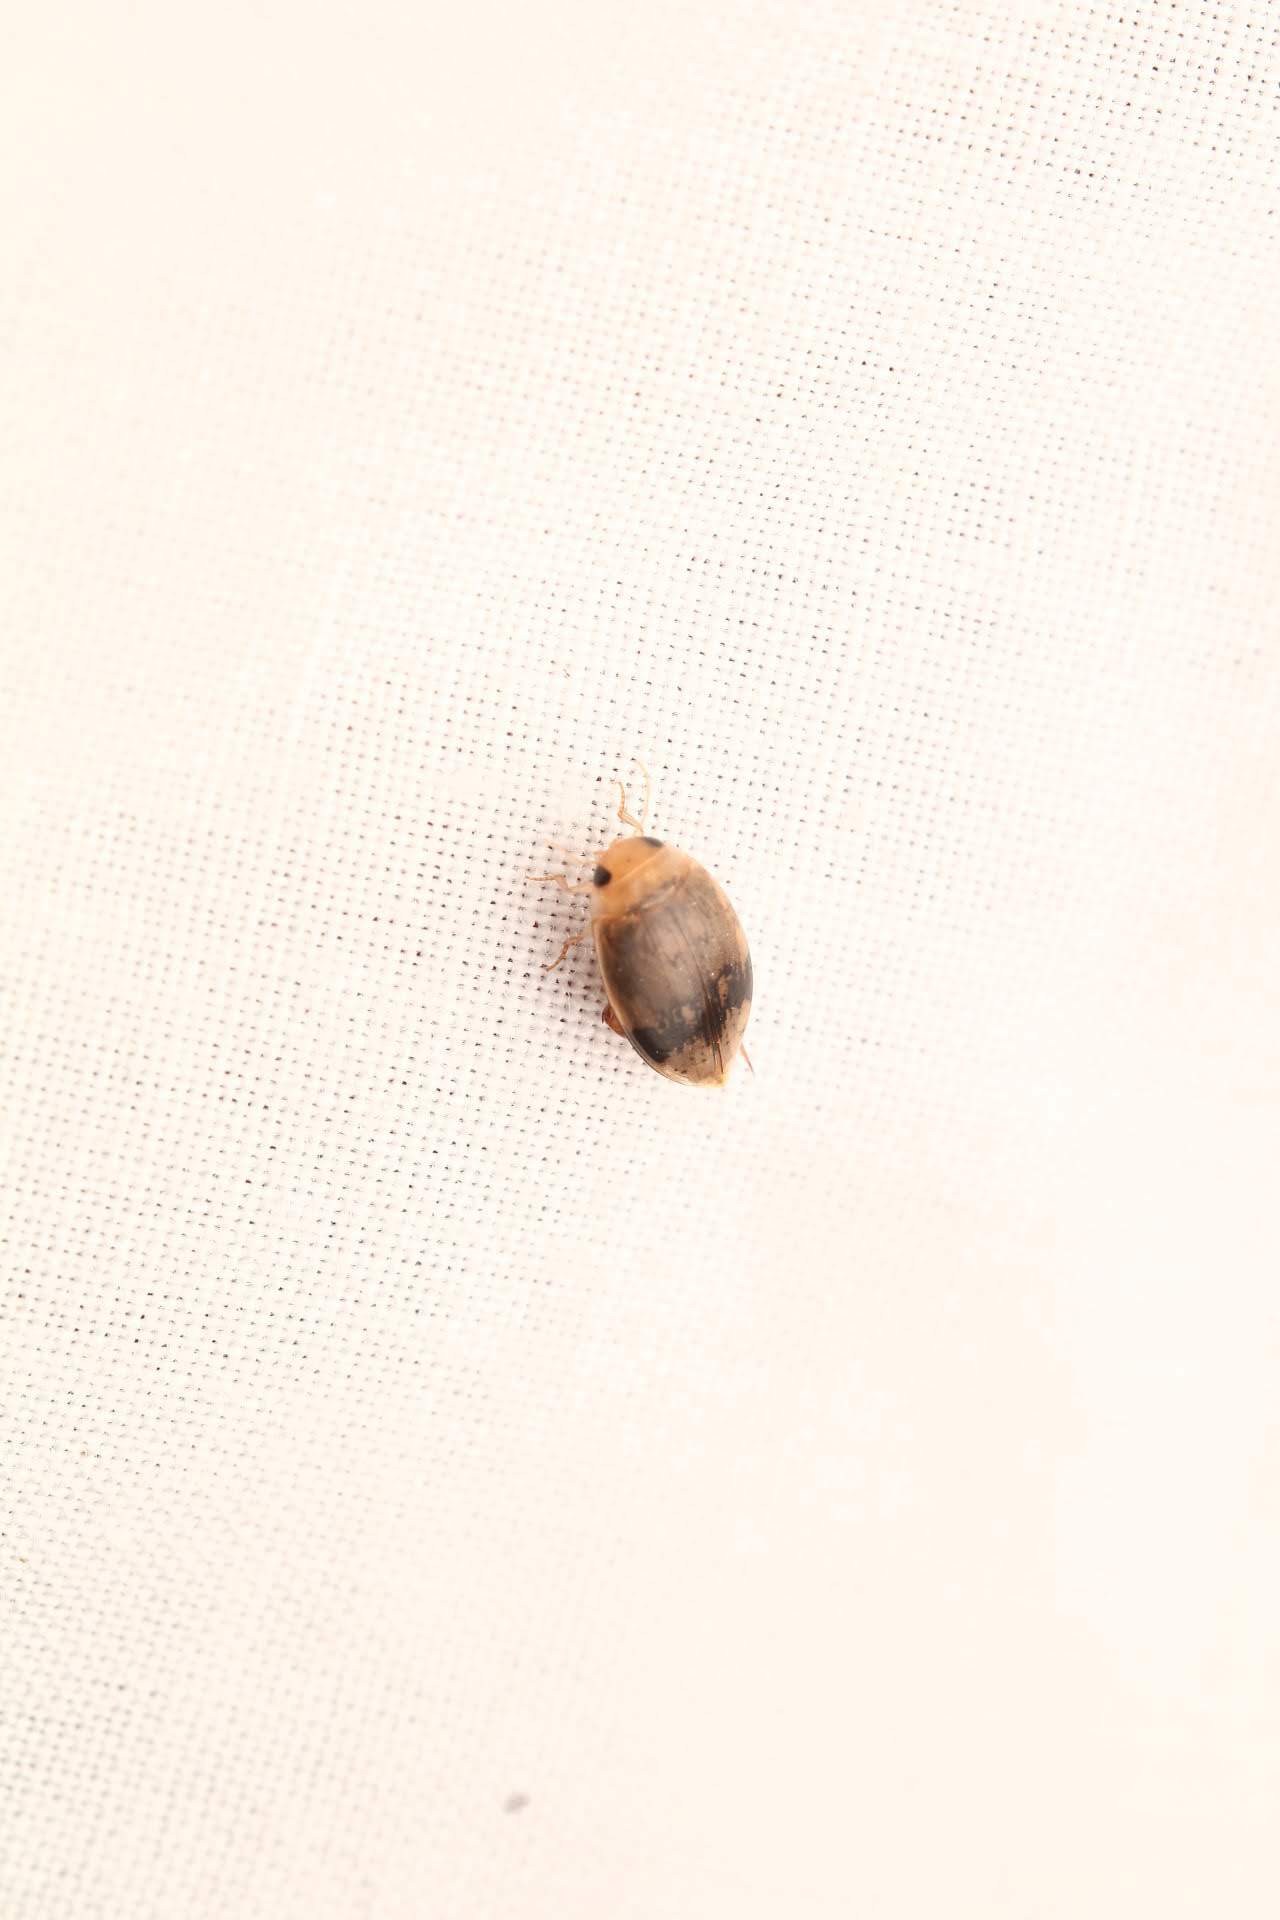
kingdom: Animalia
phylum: Arthropoda
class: Insecta
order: Coleoptera
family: Dytiscidae
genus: Laccophilus
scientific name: Laccophilus fasciatus
